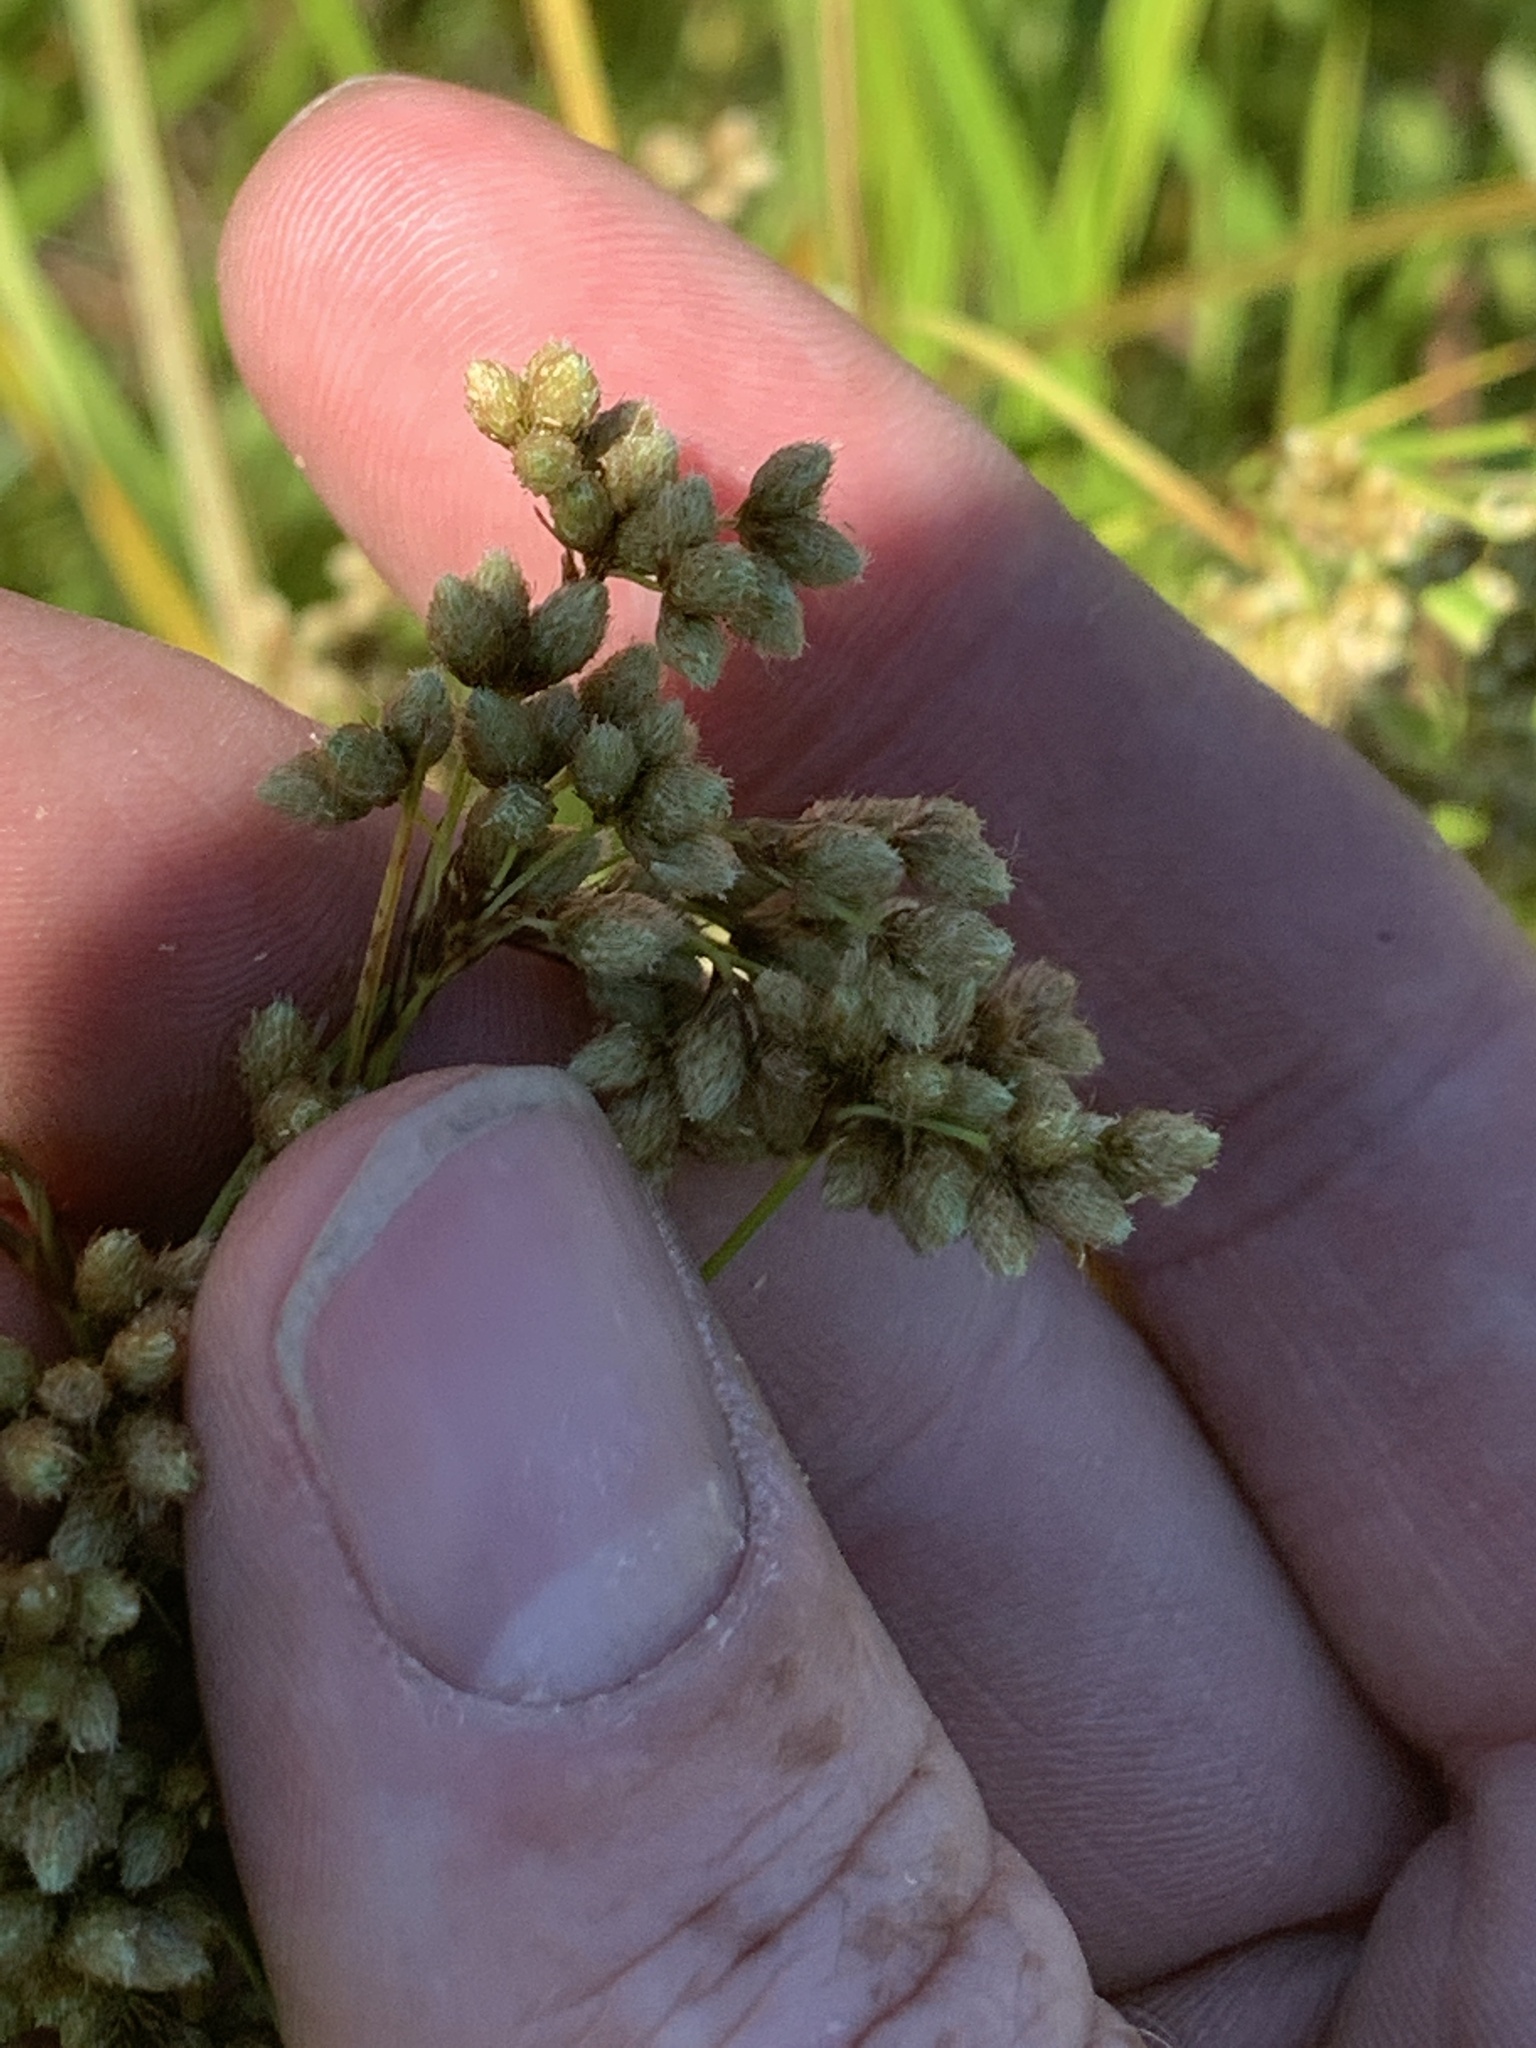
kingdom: Plantae
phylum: Tracheophyta
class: Liliopsida
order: Poales
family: Cyperaceae
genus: Scirpus
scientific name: Scirpus cyperinus
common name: Black-sheathed bulrush
